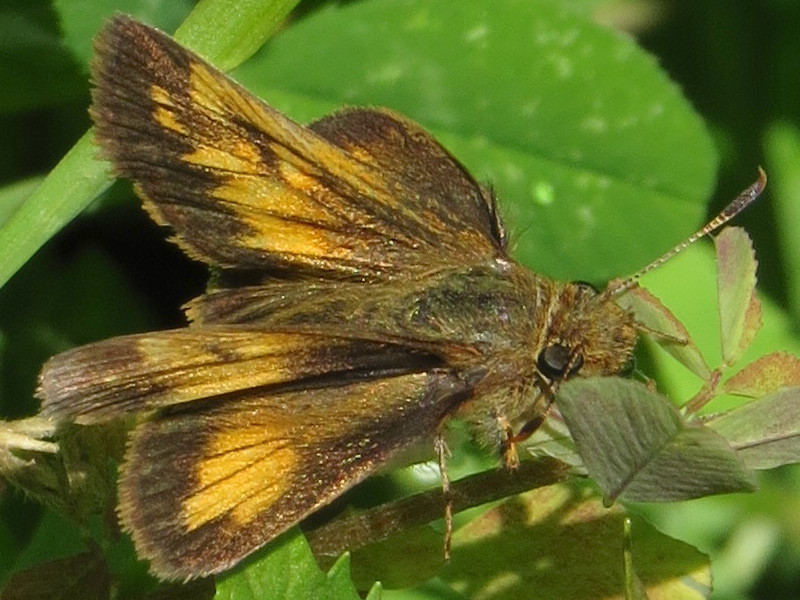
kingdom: Animalia
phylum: Arthropoda
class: Insecta
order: Lepidoptera
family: Hesperiidae
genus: Lon
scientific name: Lon hobomok
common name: Hobomok skipper
